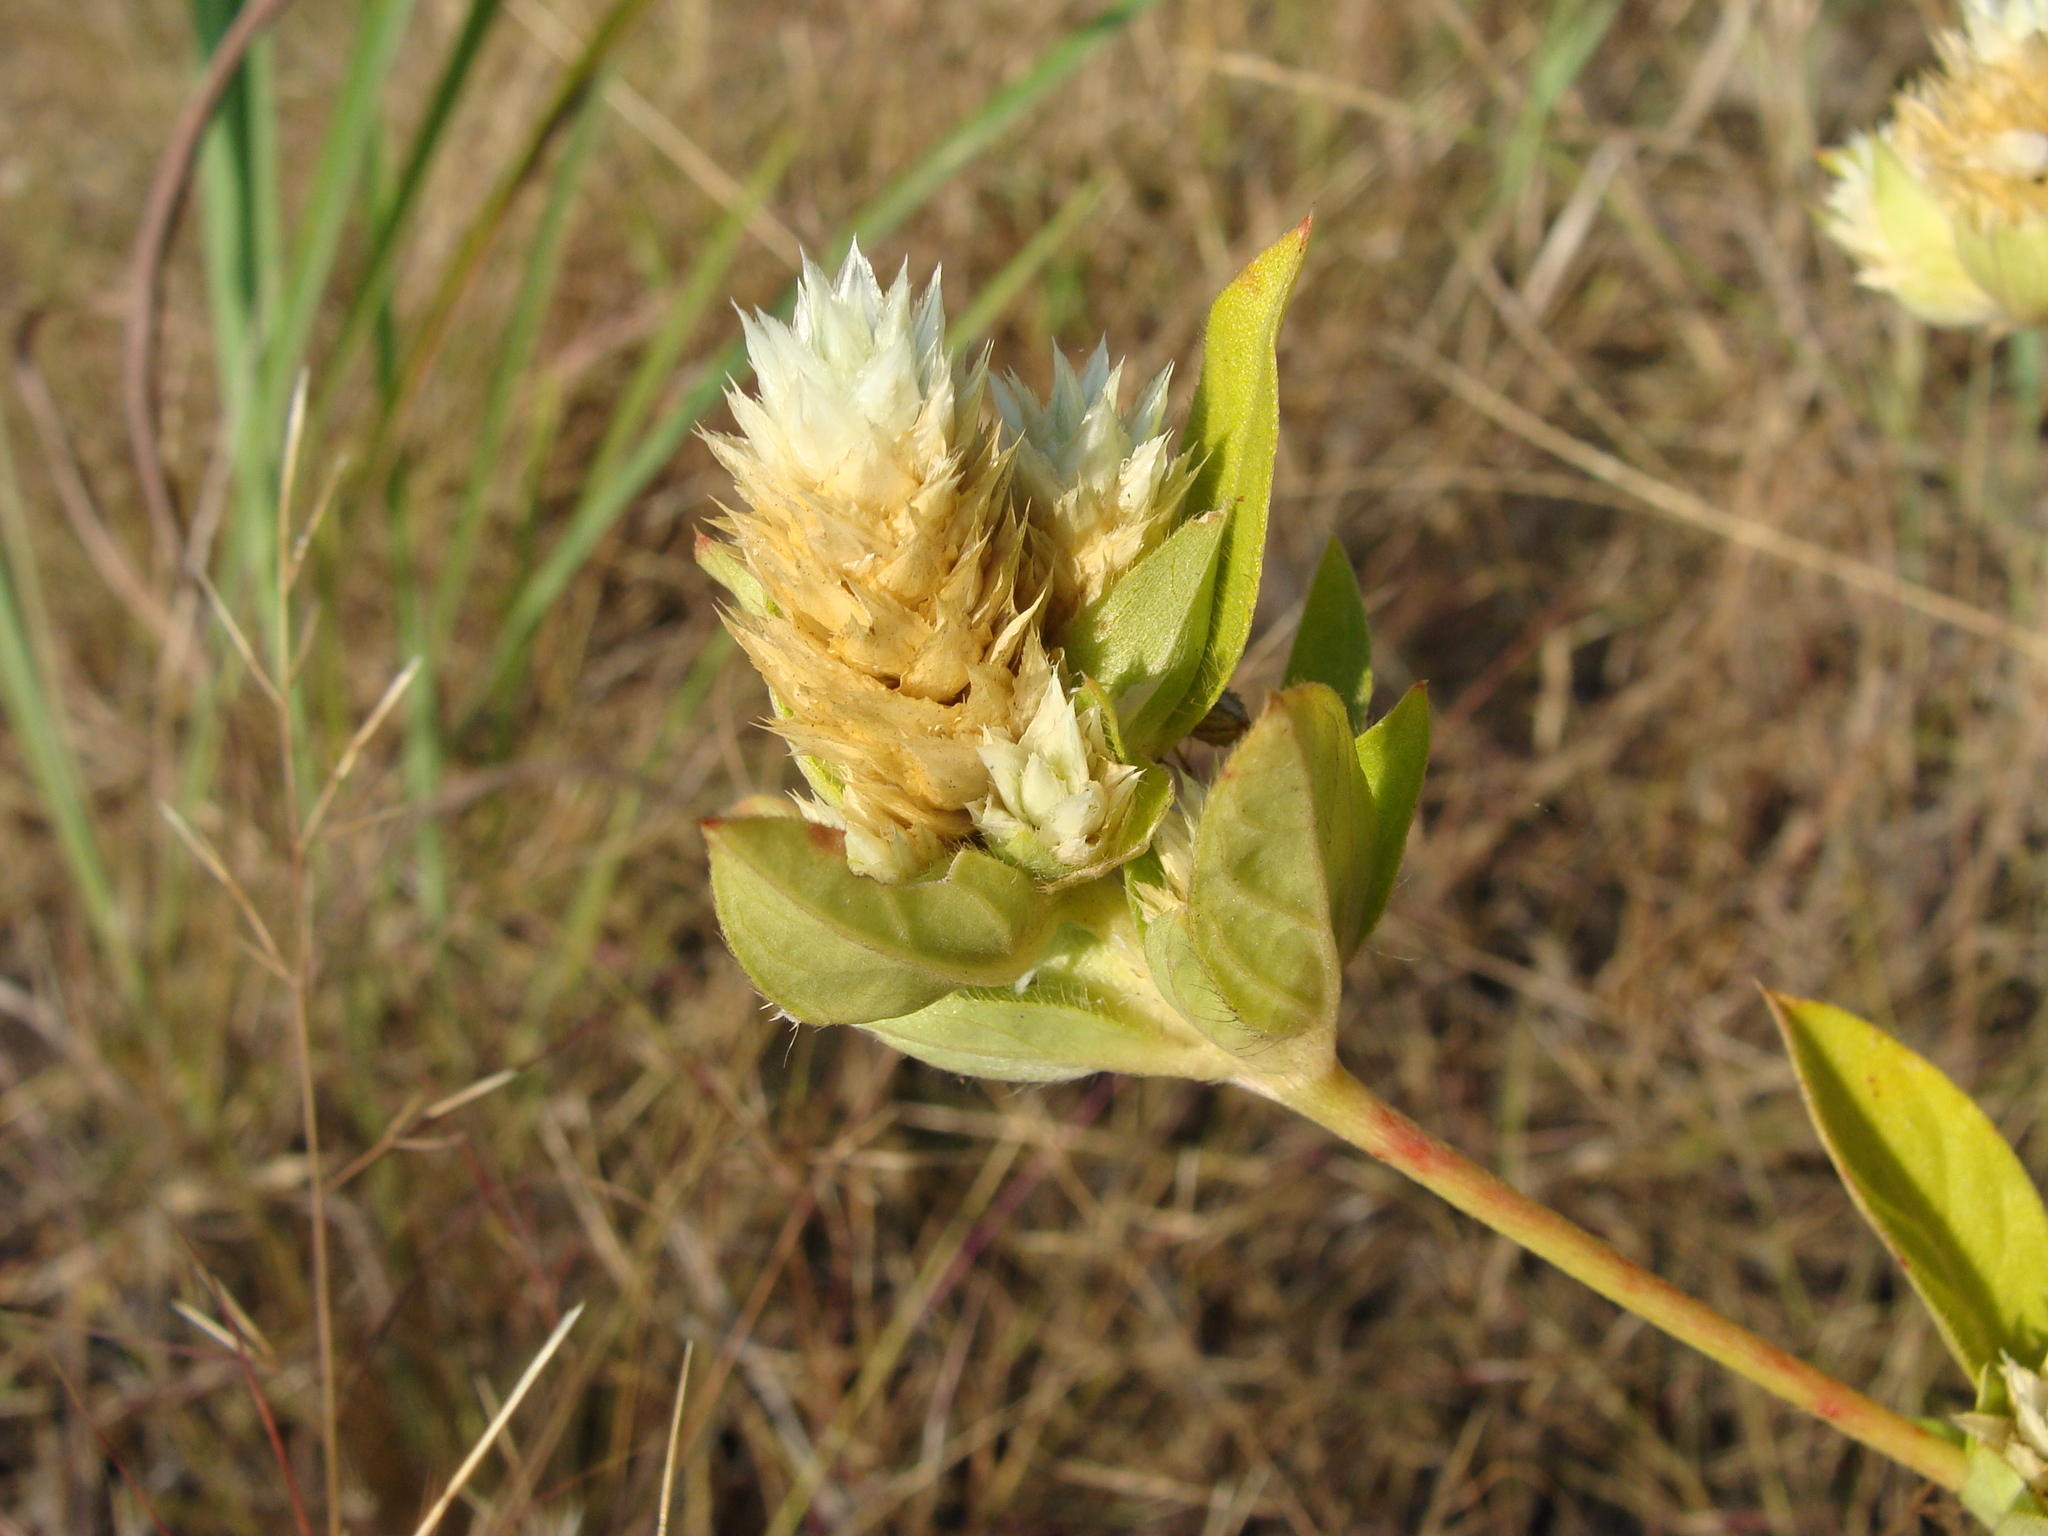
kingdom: Plantae
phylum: Tracheophyta
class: Magnoliopsida
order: Caryophyllales
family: Amaranthaceae
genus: Gomphrena
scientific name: Gomphrena serrata
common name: Arrasa con todo
